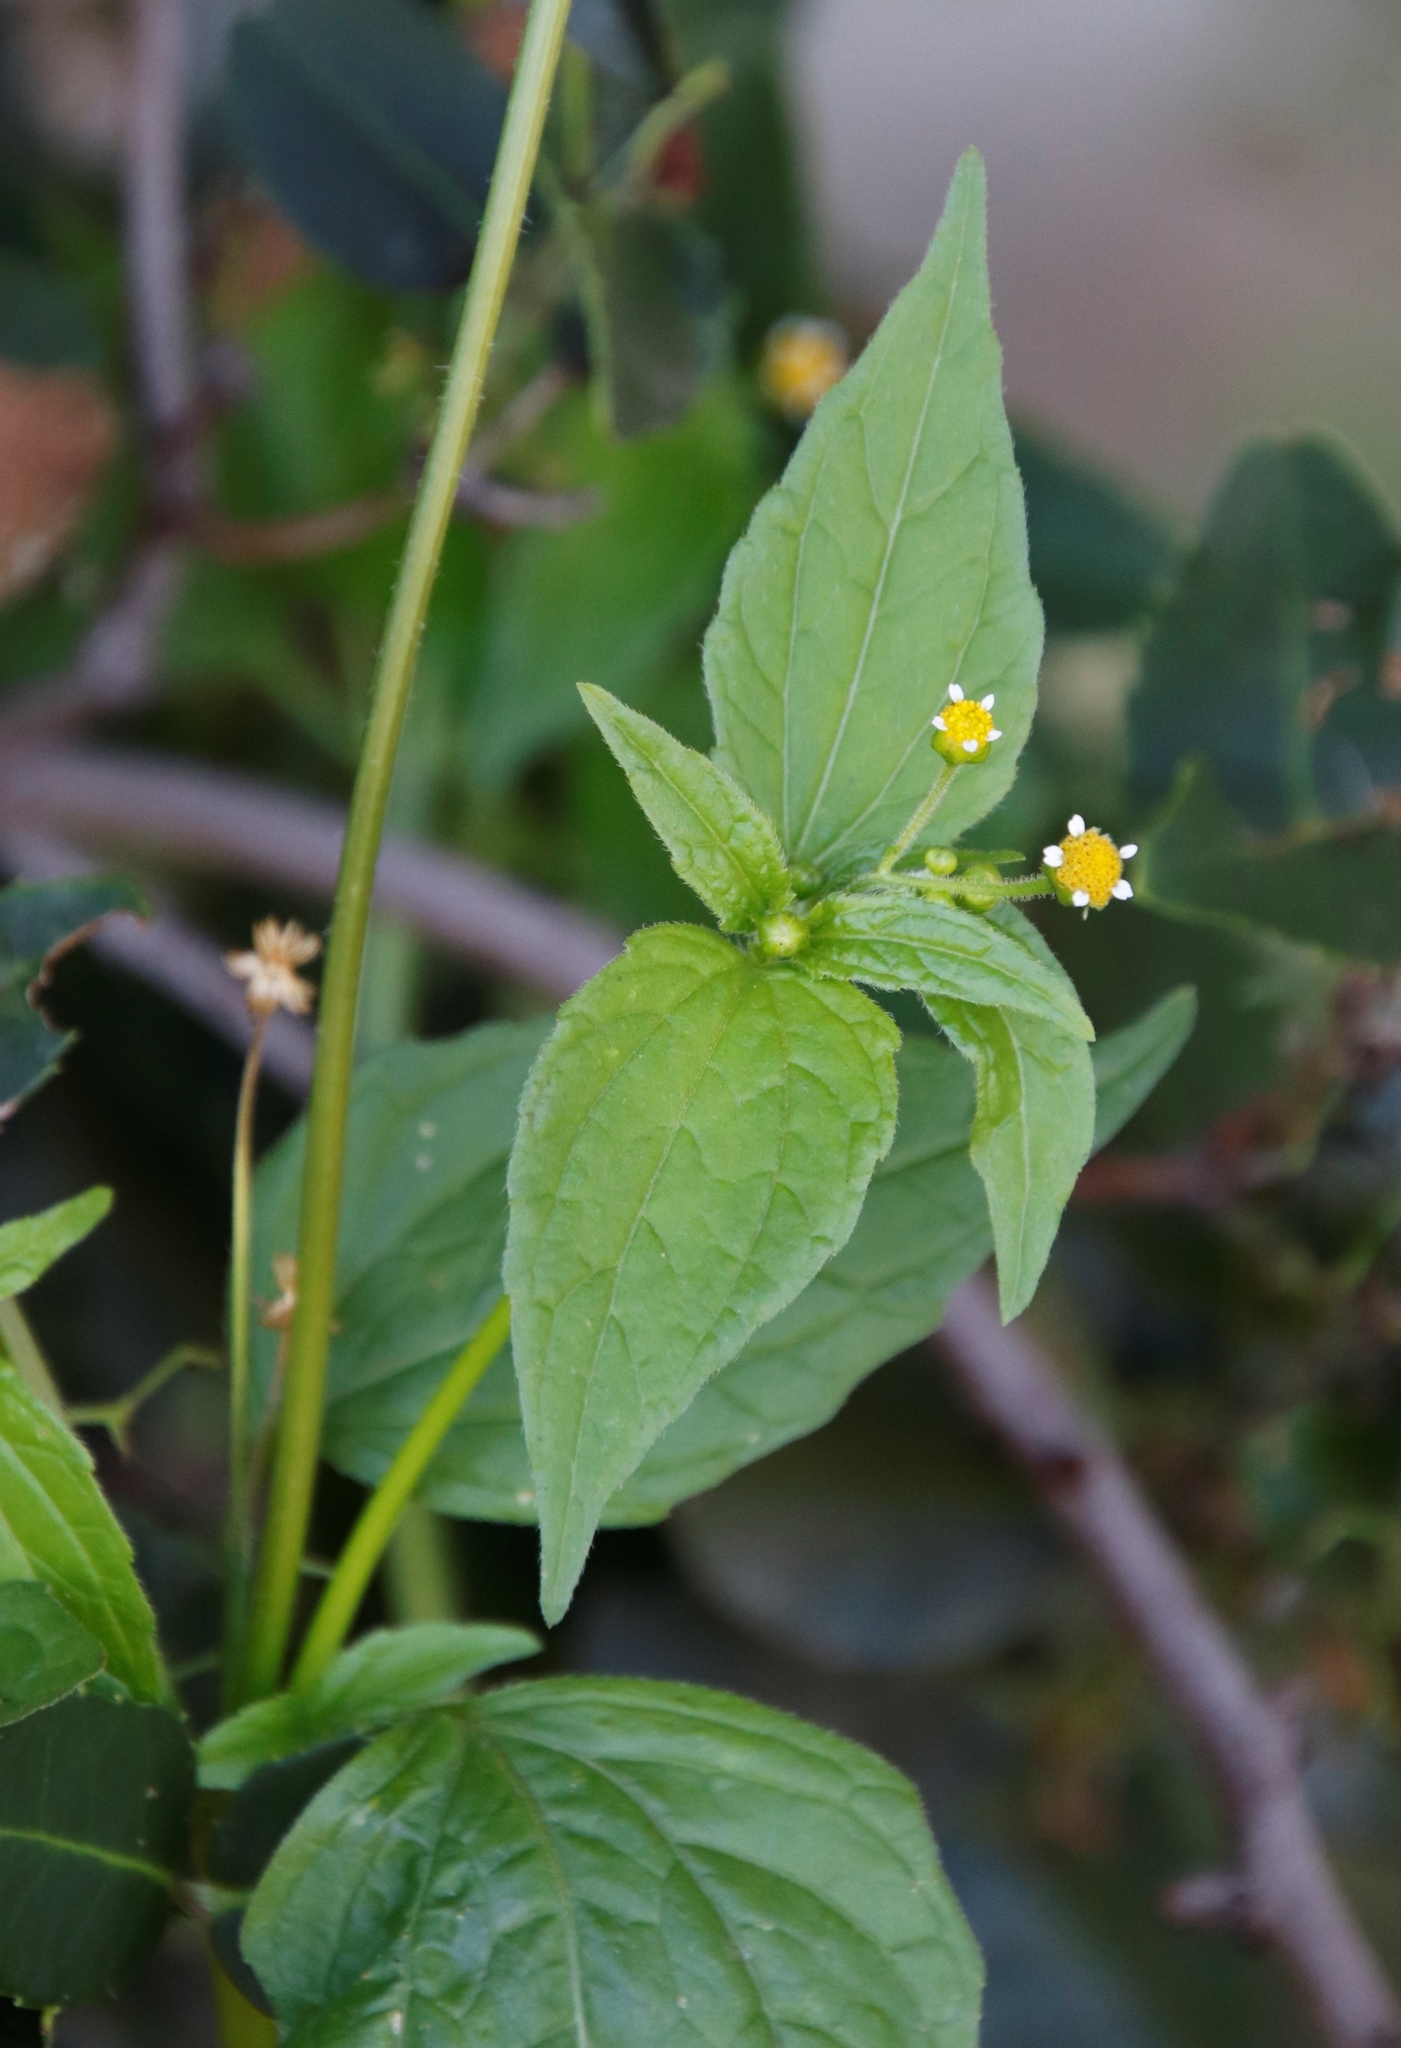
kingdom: Plantae
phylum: Tracheophyta
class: Magnoliopsida
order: Asterales
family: Asteraceae
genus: Galinsoga
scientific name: Galinsoga parviflora
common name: Gallant soldier
